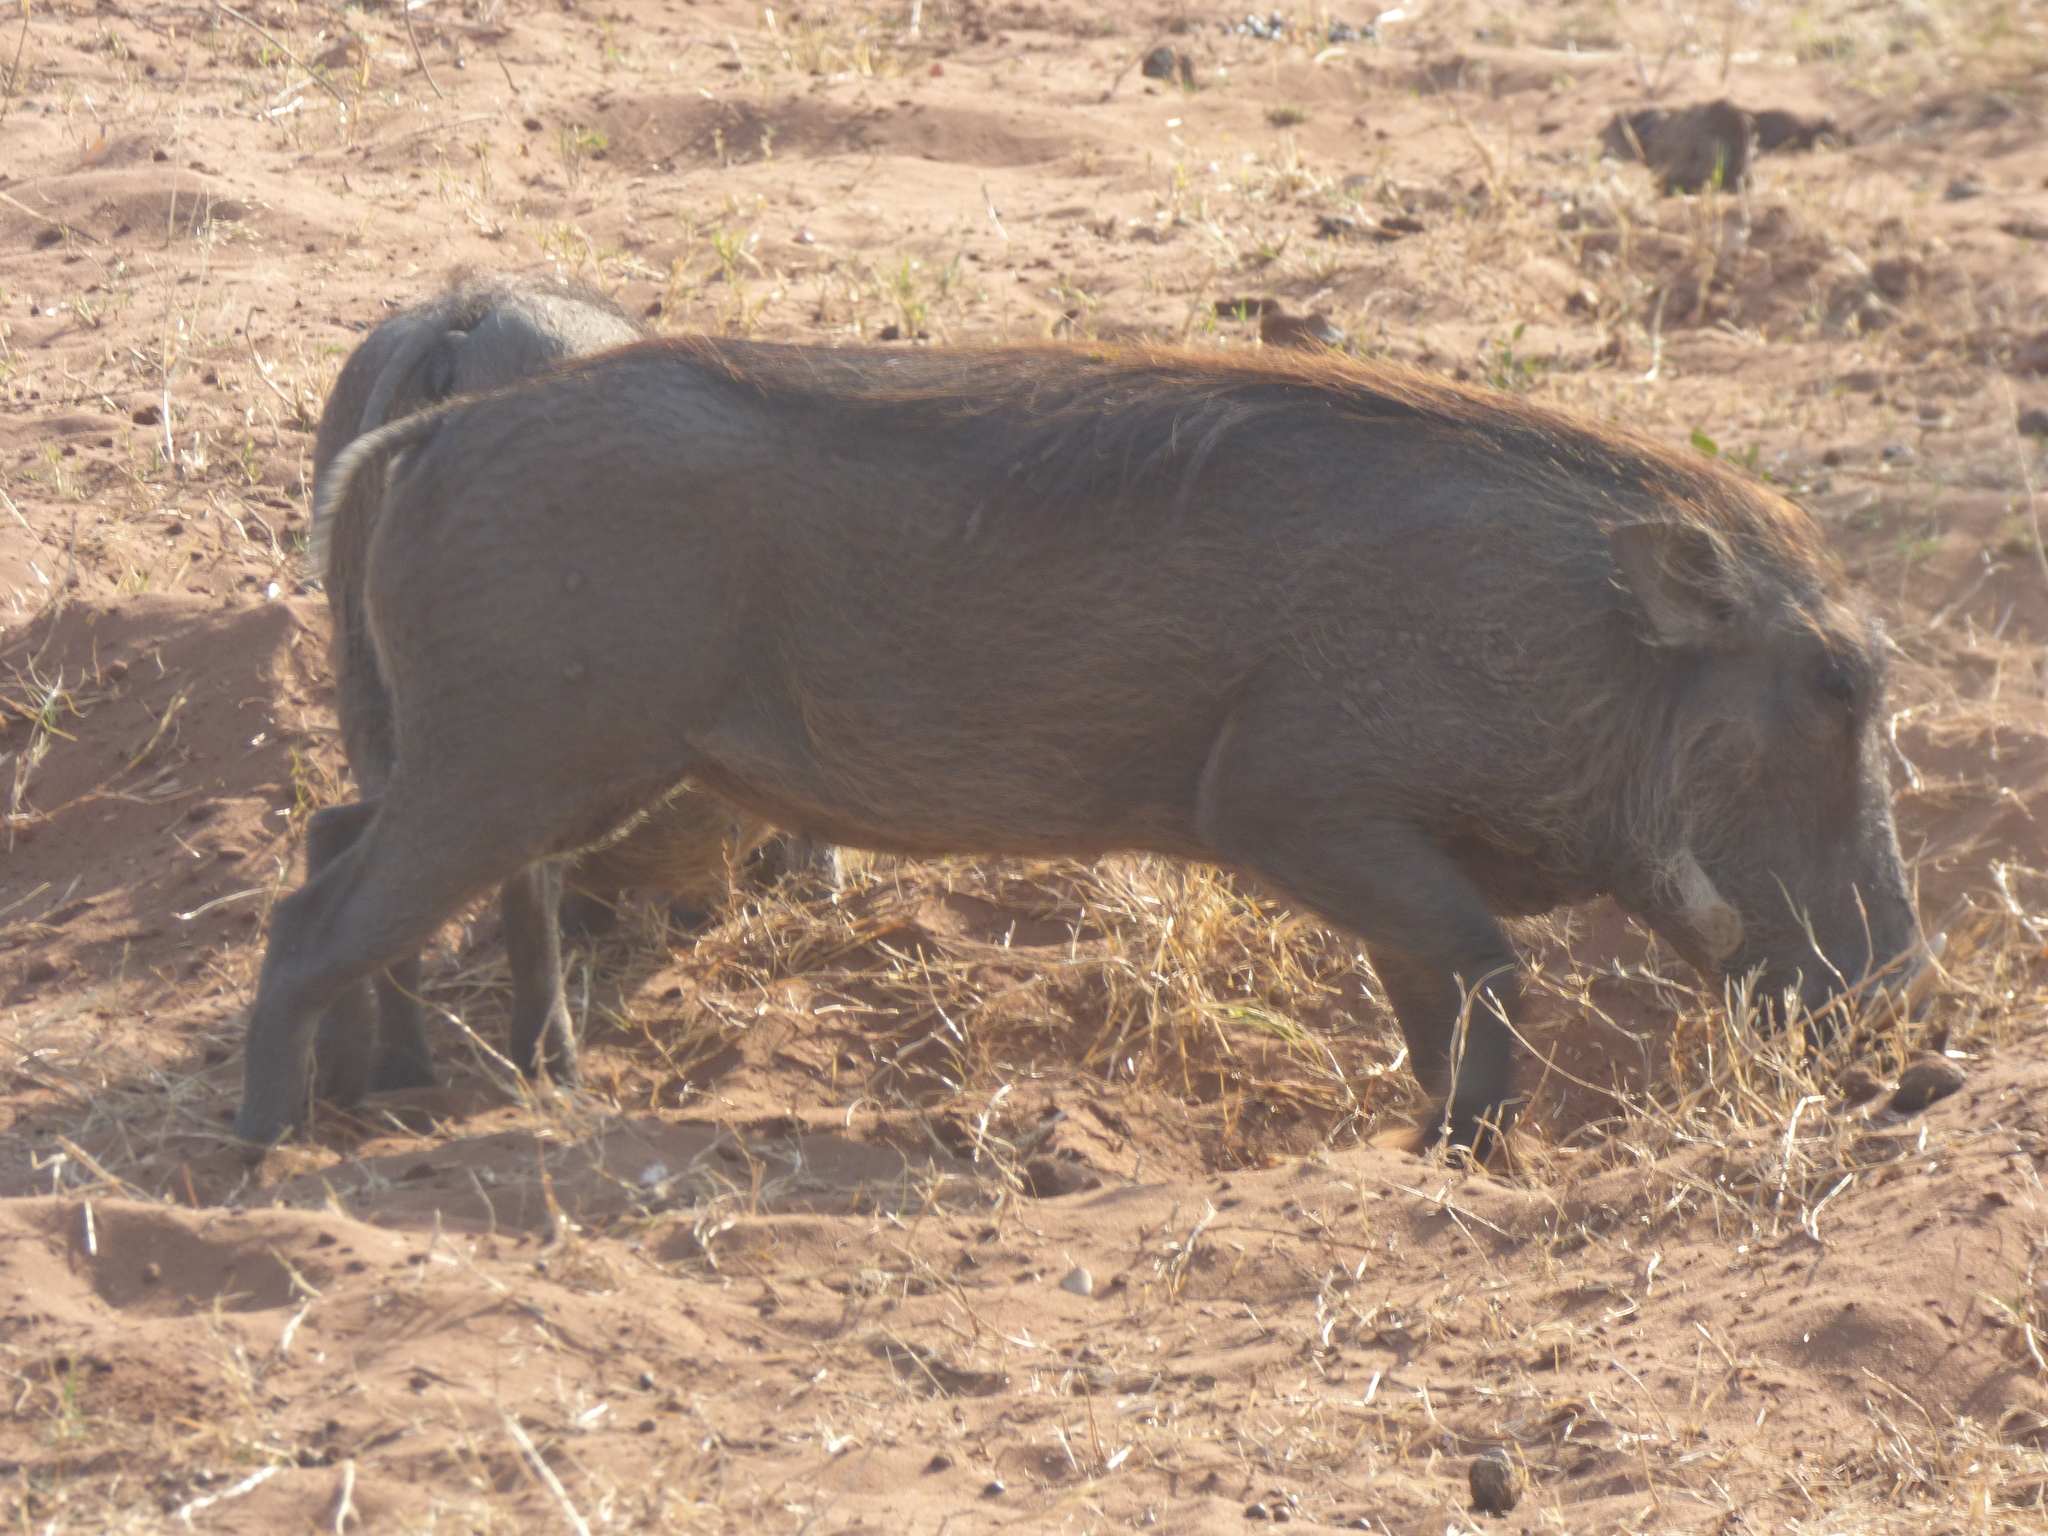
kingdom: Animalia
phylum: Chordata
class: Mammalia
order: Artiodactyla
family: Suidae
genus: Phacochoerus
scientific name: Phacochoerus africanus
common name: Common warthog
